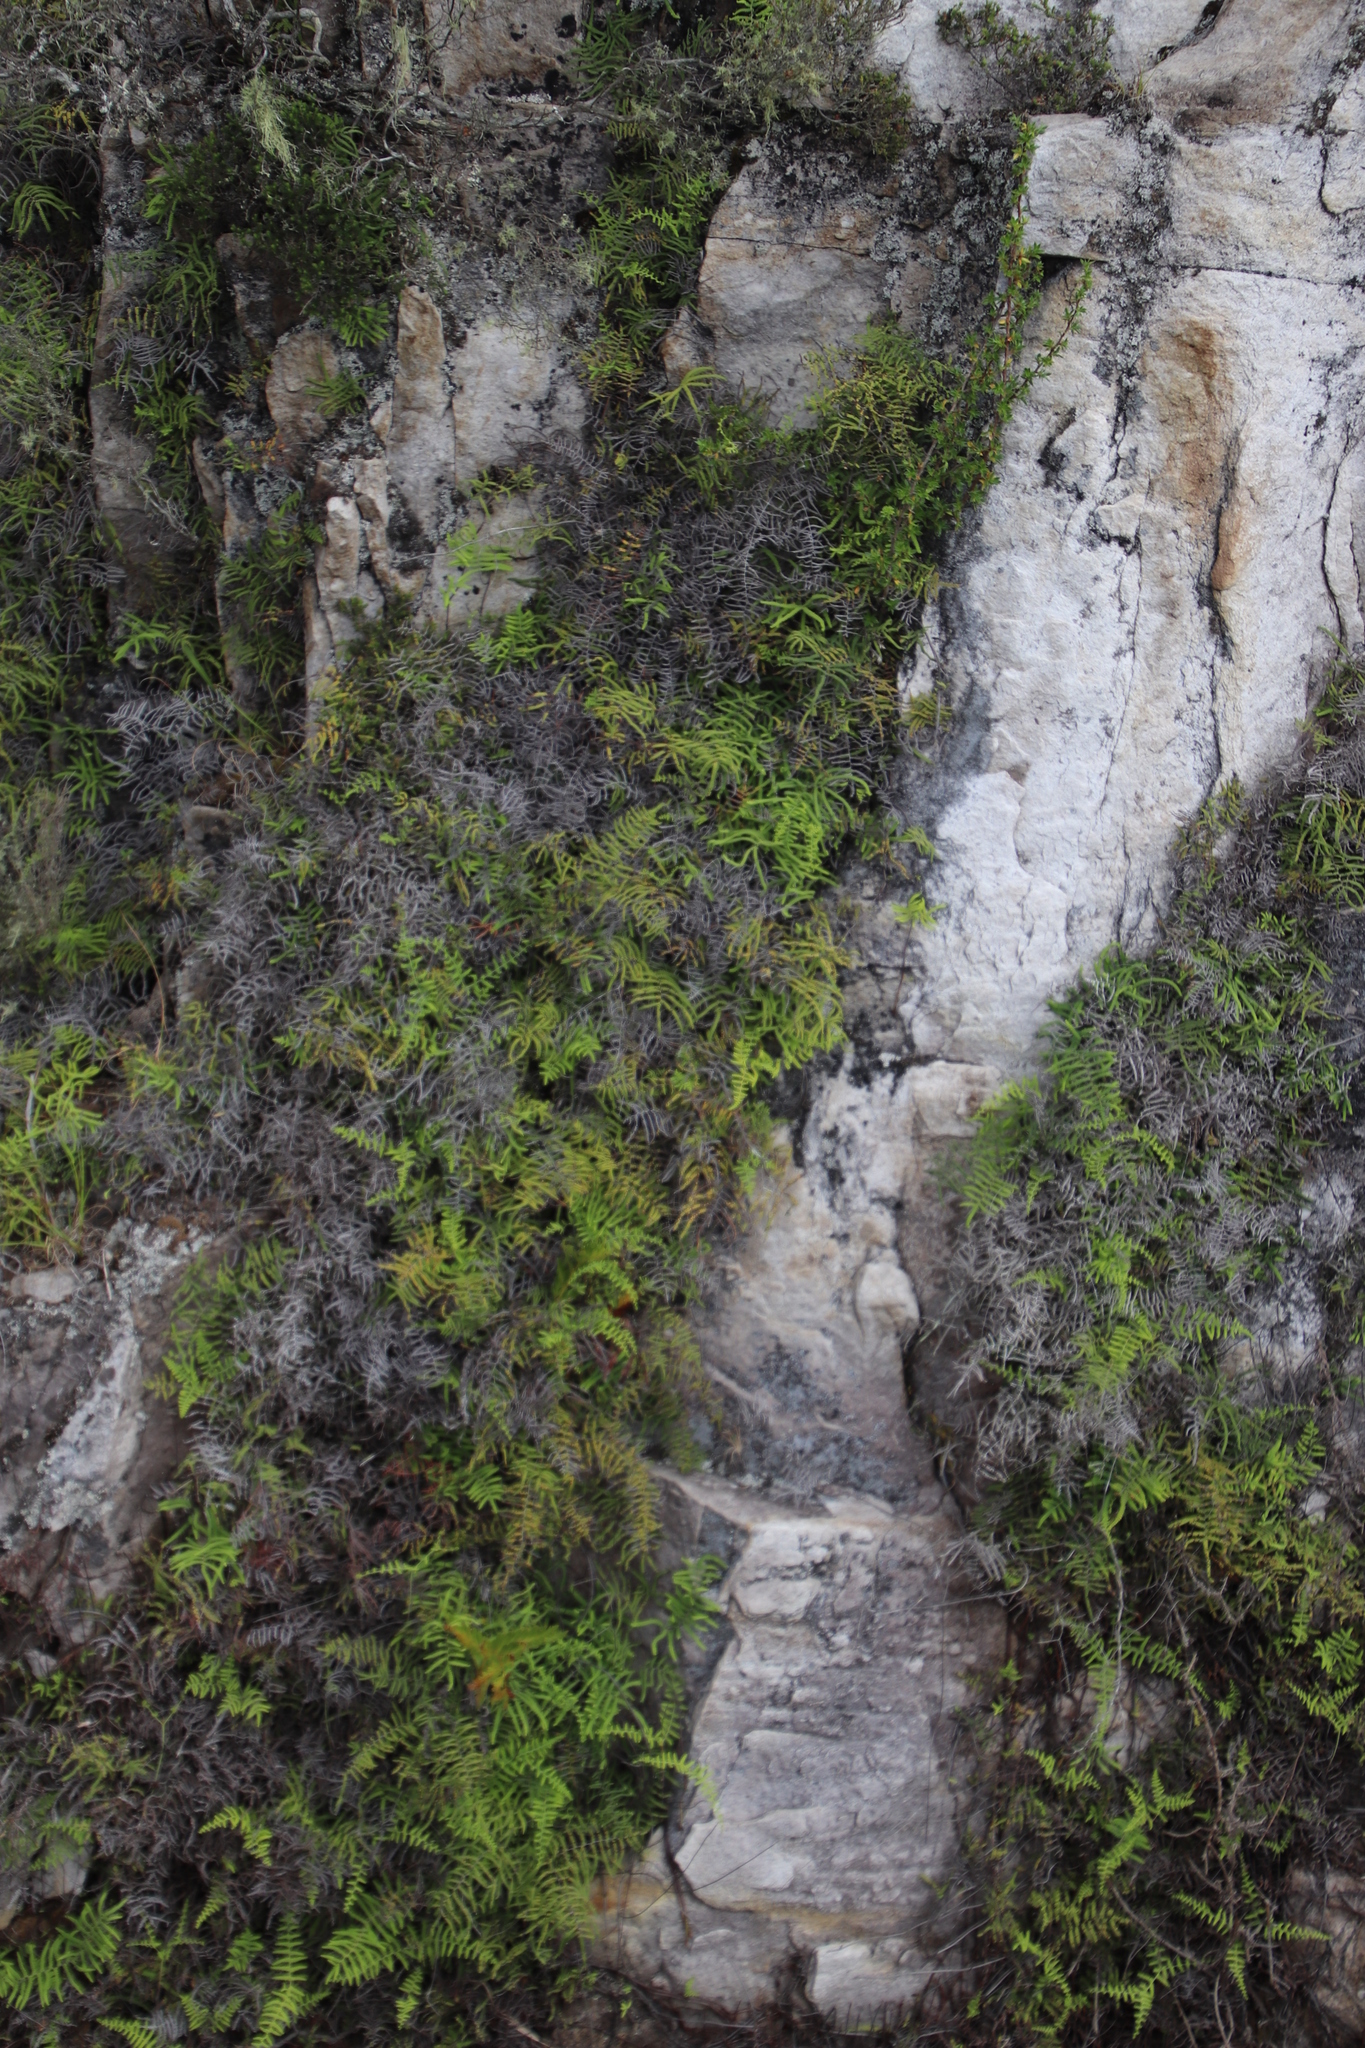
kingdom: Plantae
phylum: Tracheophyta
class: Polypodiopsida
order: Gleicheniales
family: Gleicheniaceae
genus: Gleichenia
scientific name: Gleichenia polypodioides
